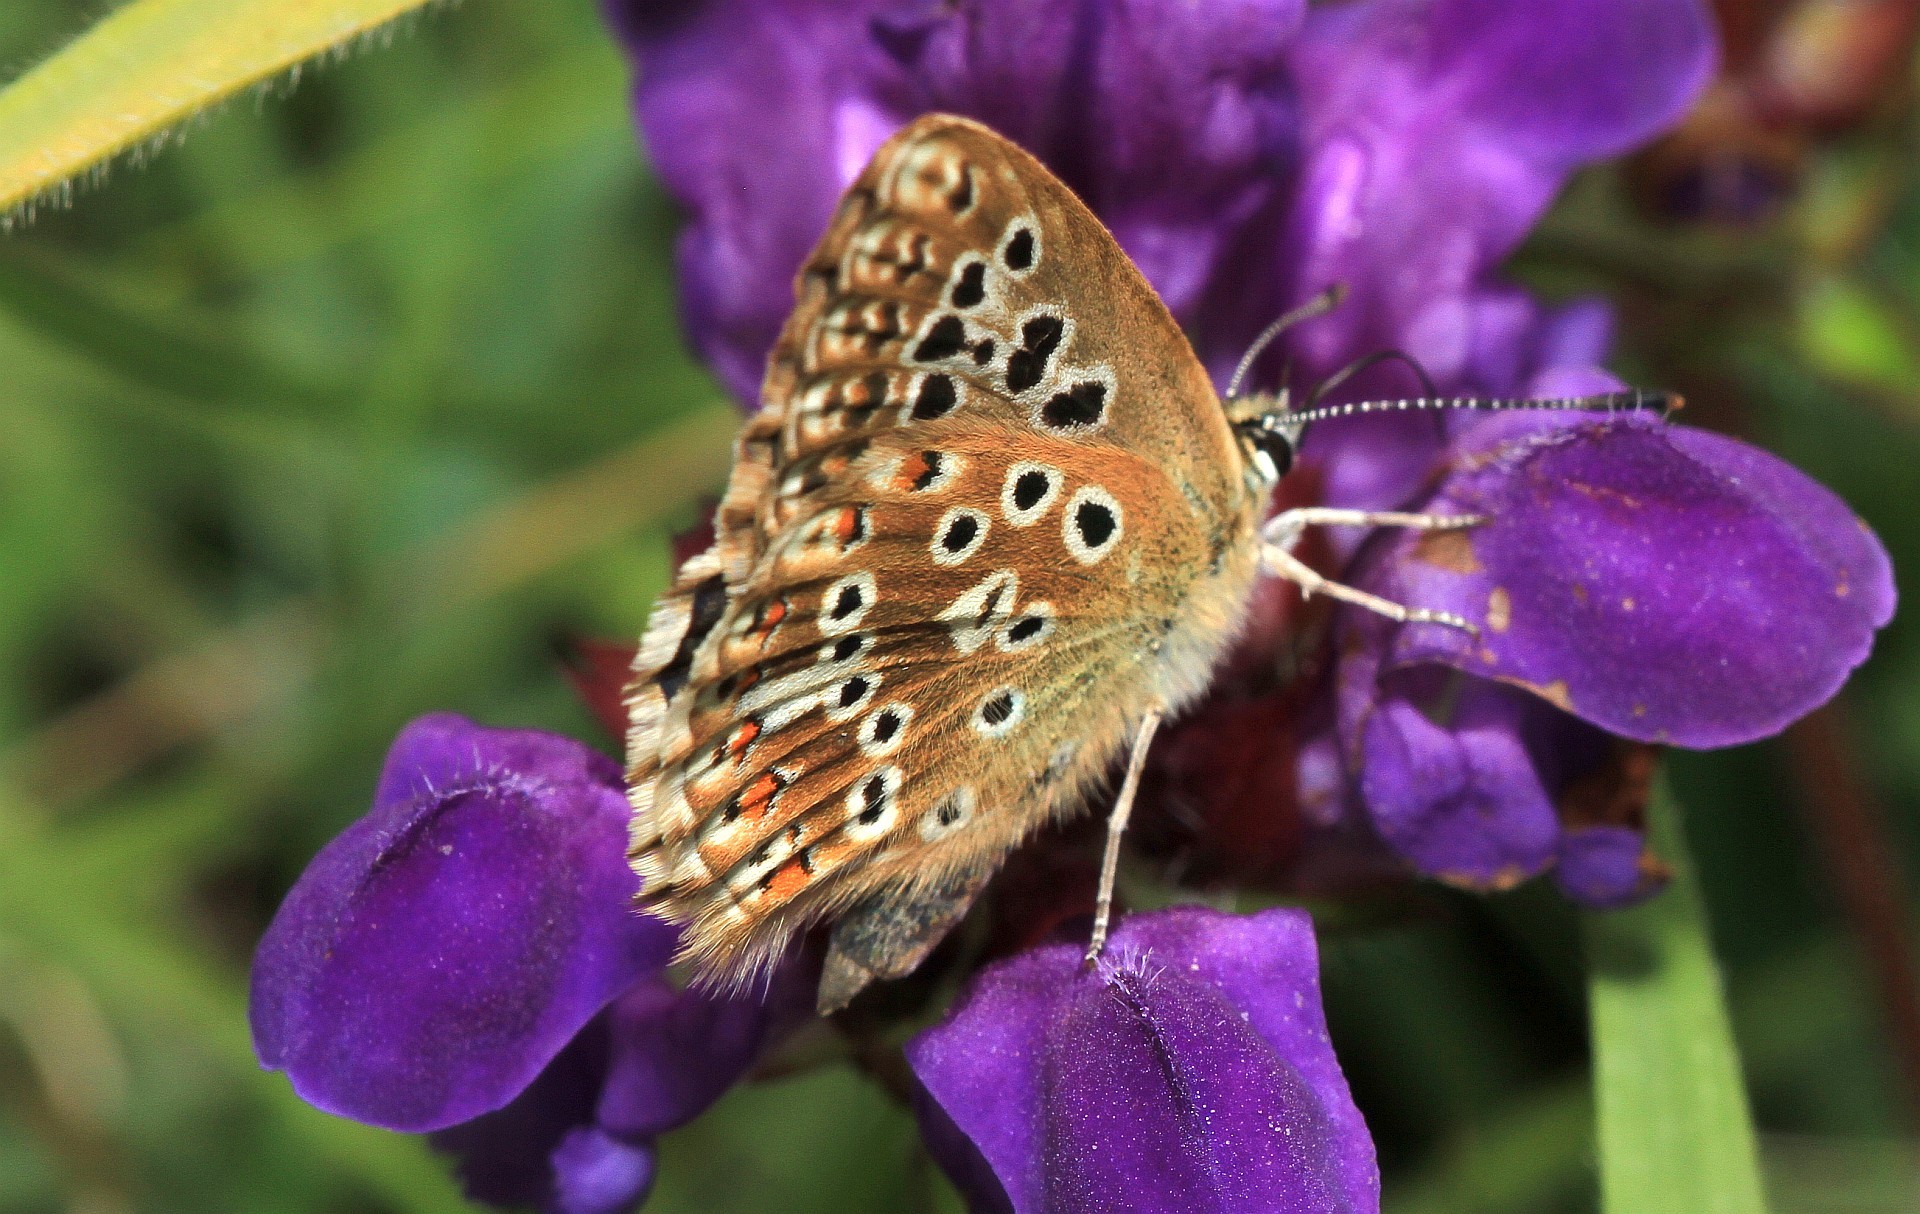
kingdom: Animalia
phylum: Arthropoda
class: Insecta
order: Lepidoptera
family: Lycaenidae
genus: Lysandra
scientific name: Lysandra coridon
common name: Chalkhill blue
